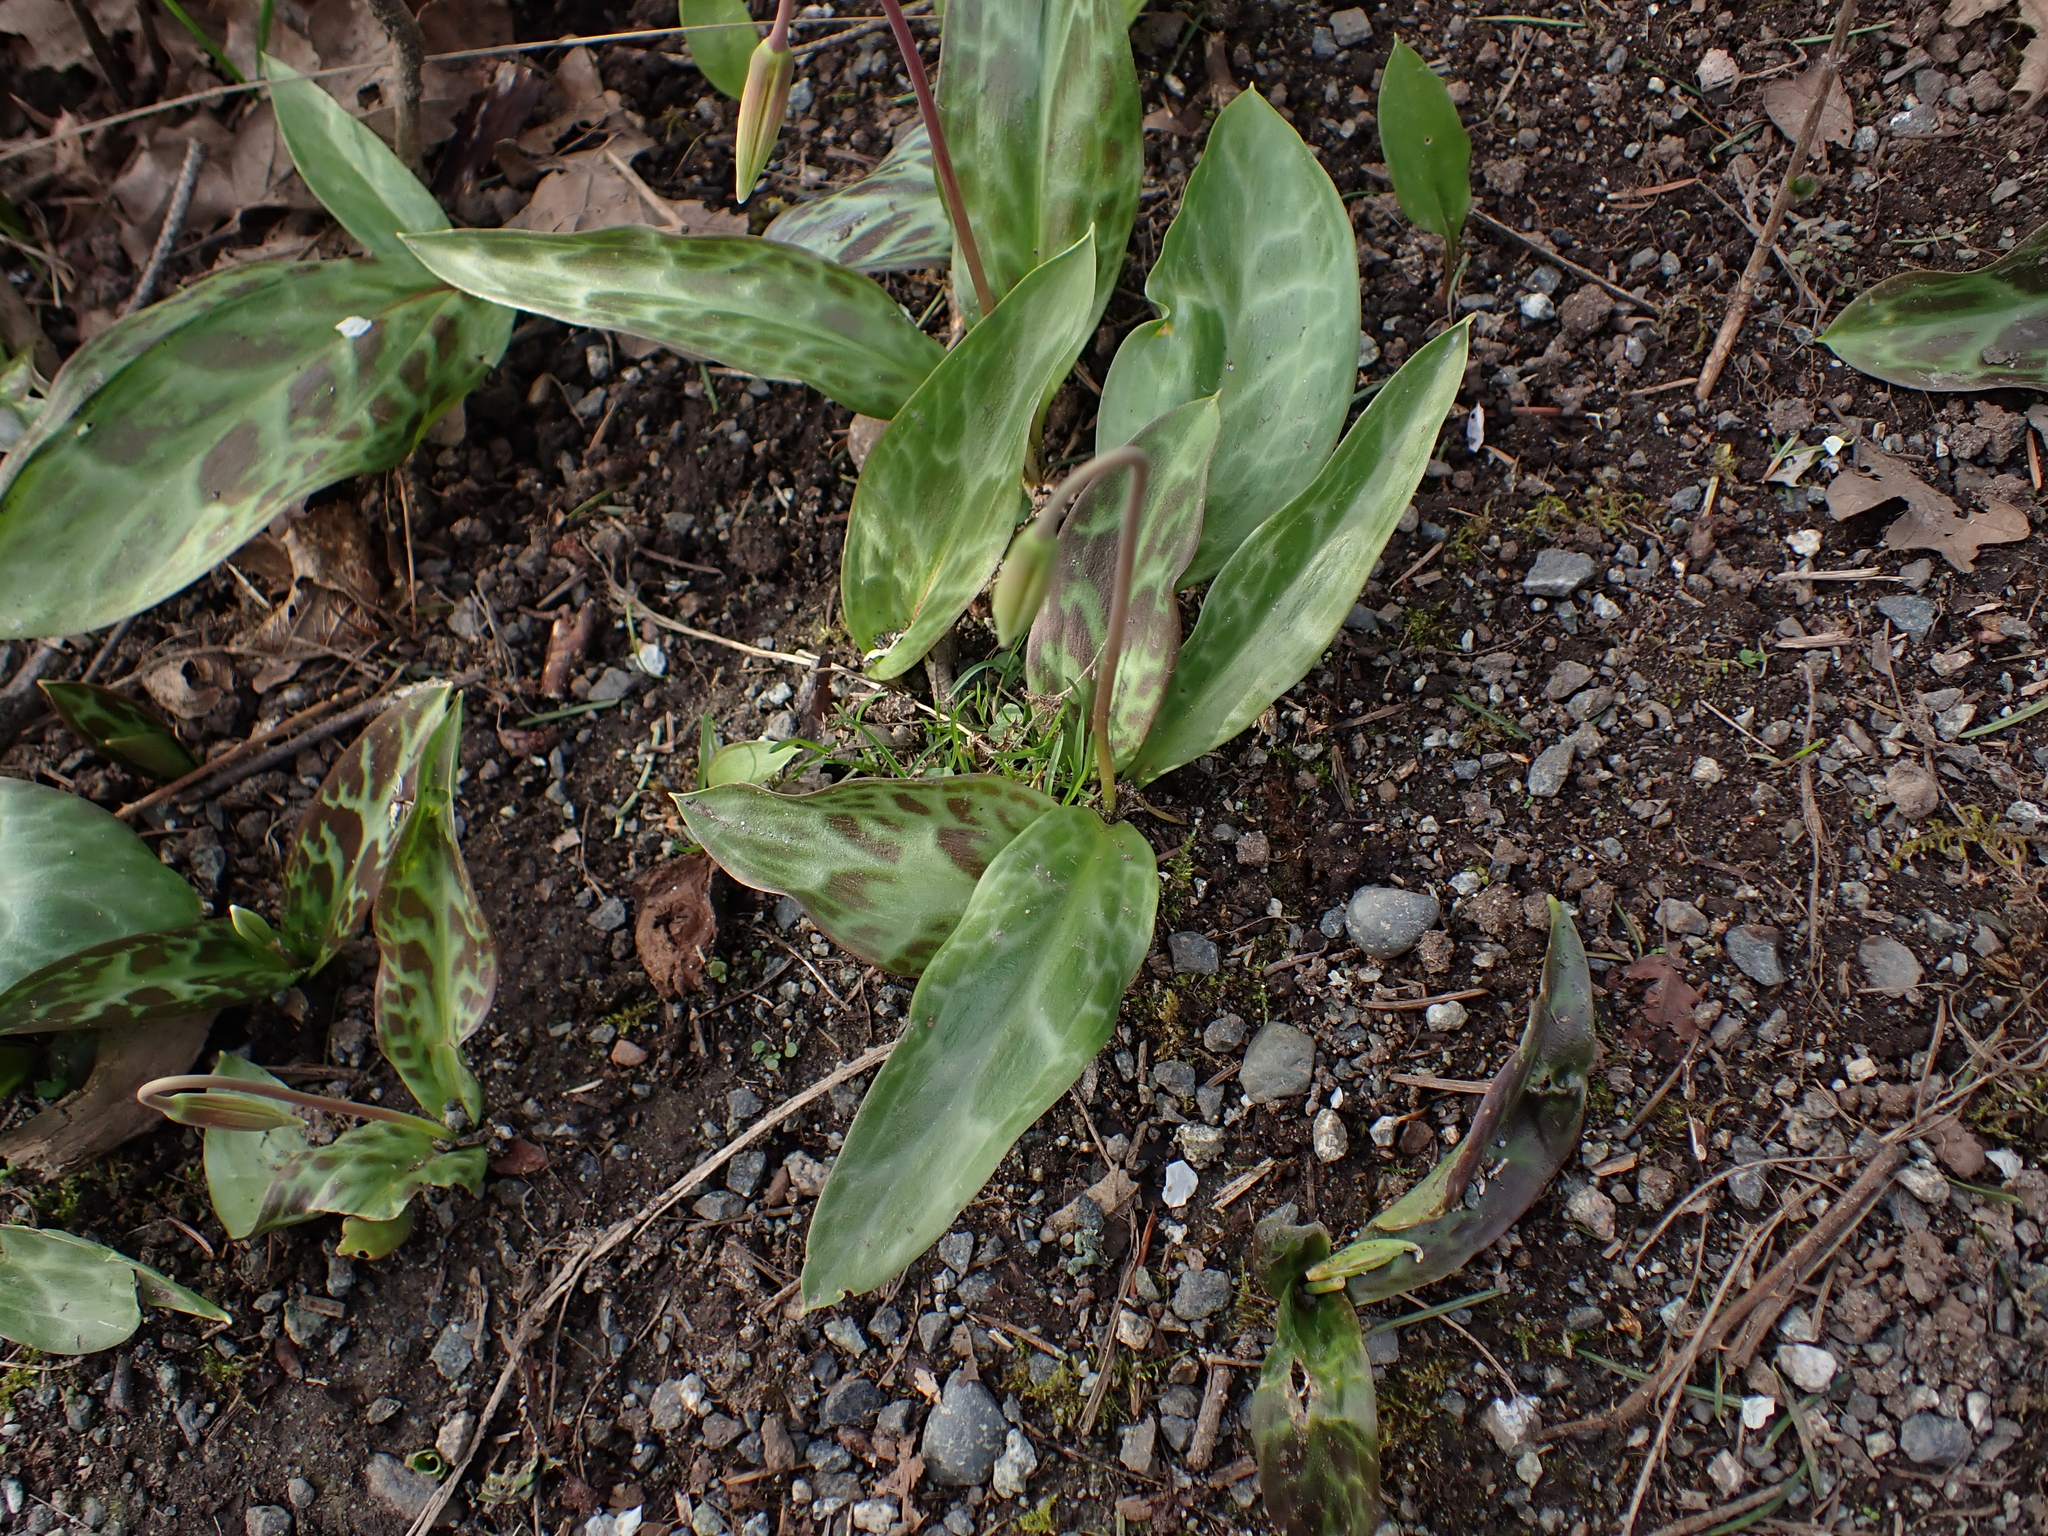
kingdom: Plantae
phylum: Tracheophyta
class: Liliopsida
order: Liliales
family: Liliaceae
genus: Erythronium
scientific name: Erythronium oregonum
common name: Giant adder's-tongue
